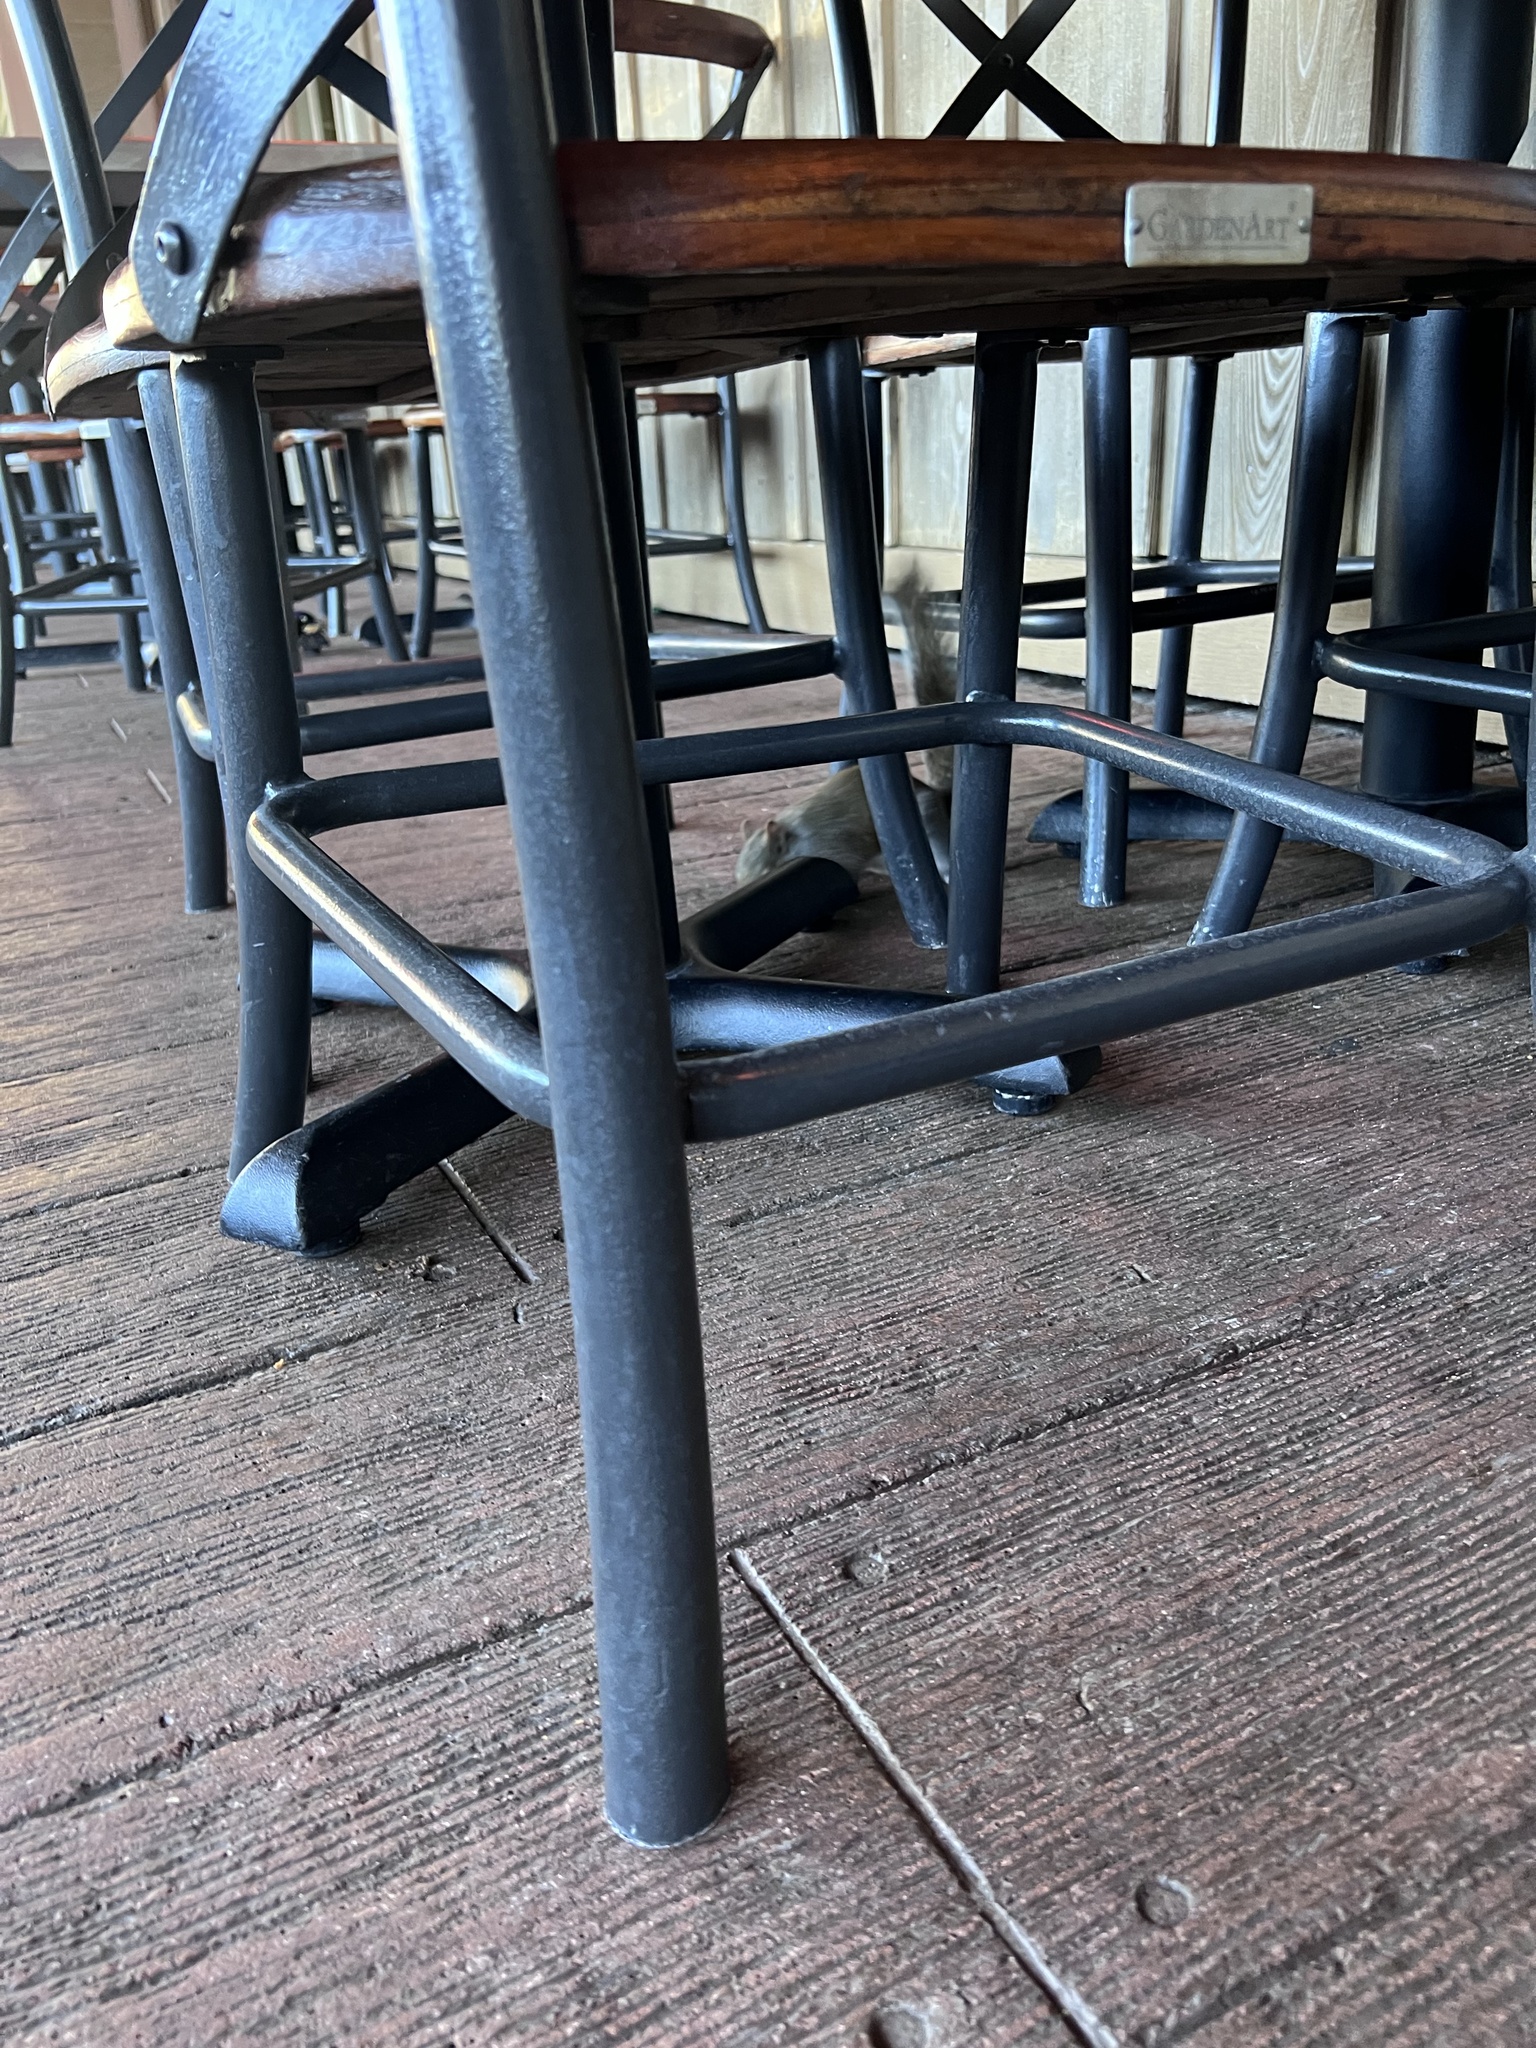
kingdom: Animalia
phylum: Chordata
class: Mammalia
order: Rodentia
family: Sciuridae
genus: Sciurus
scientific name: Sciurus carolinensis
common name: Eastern gray squirrel
